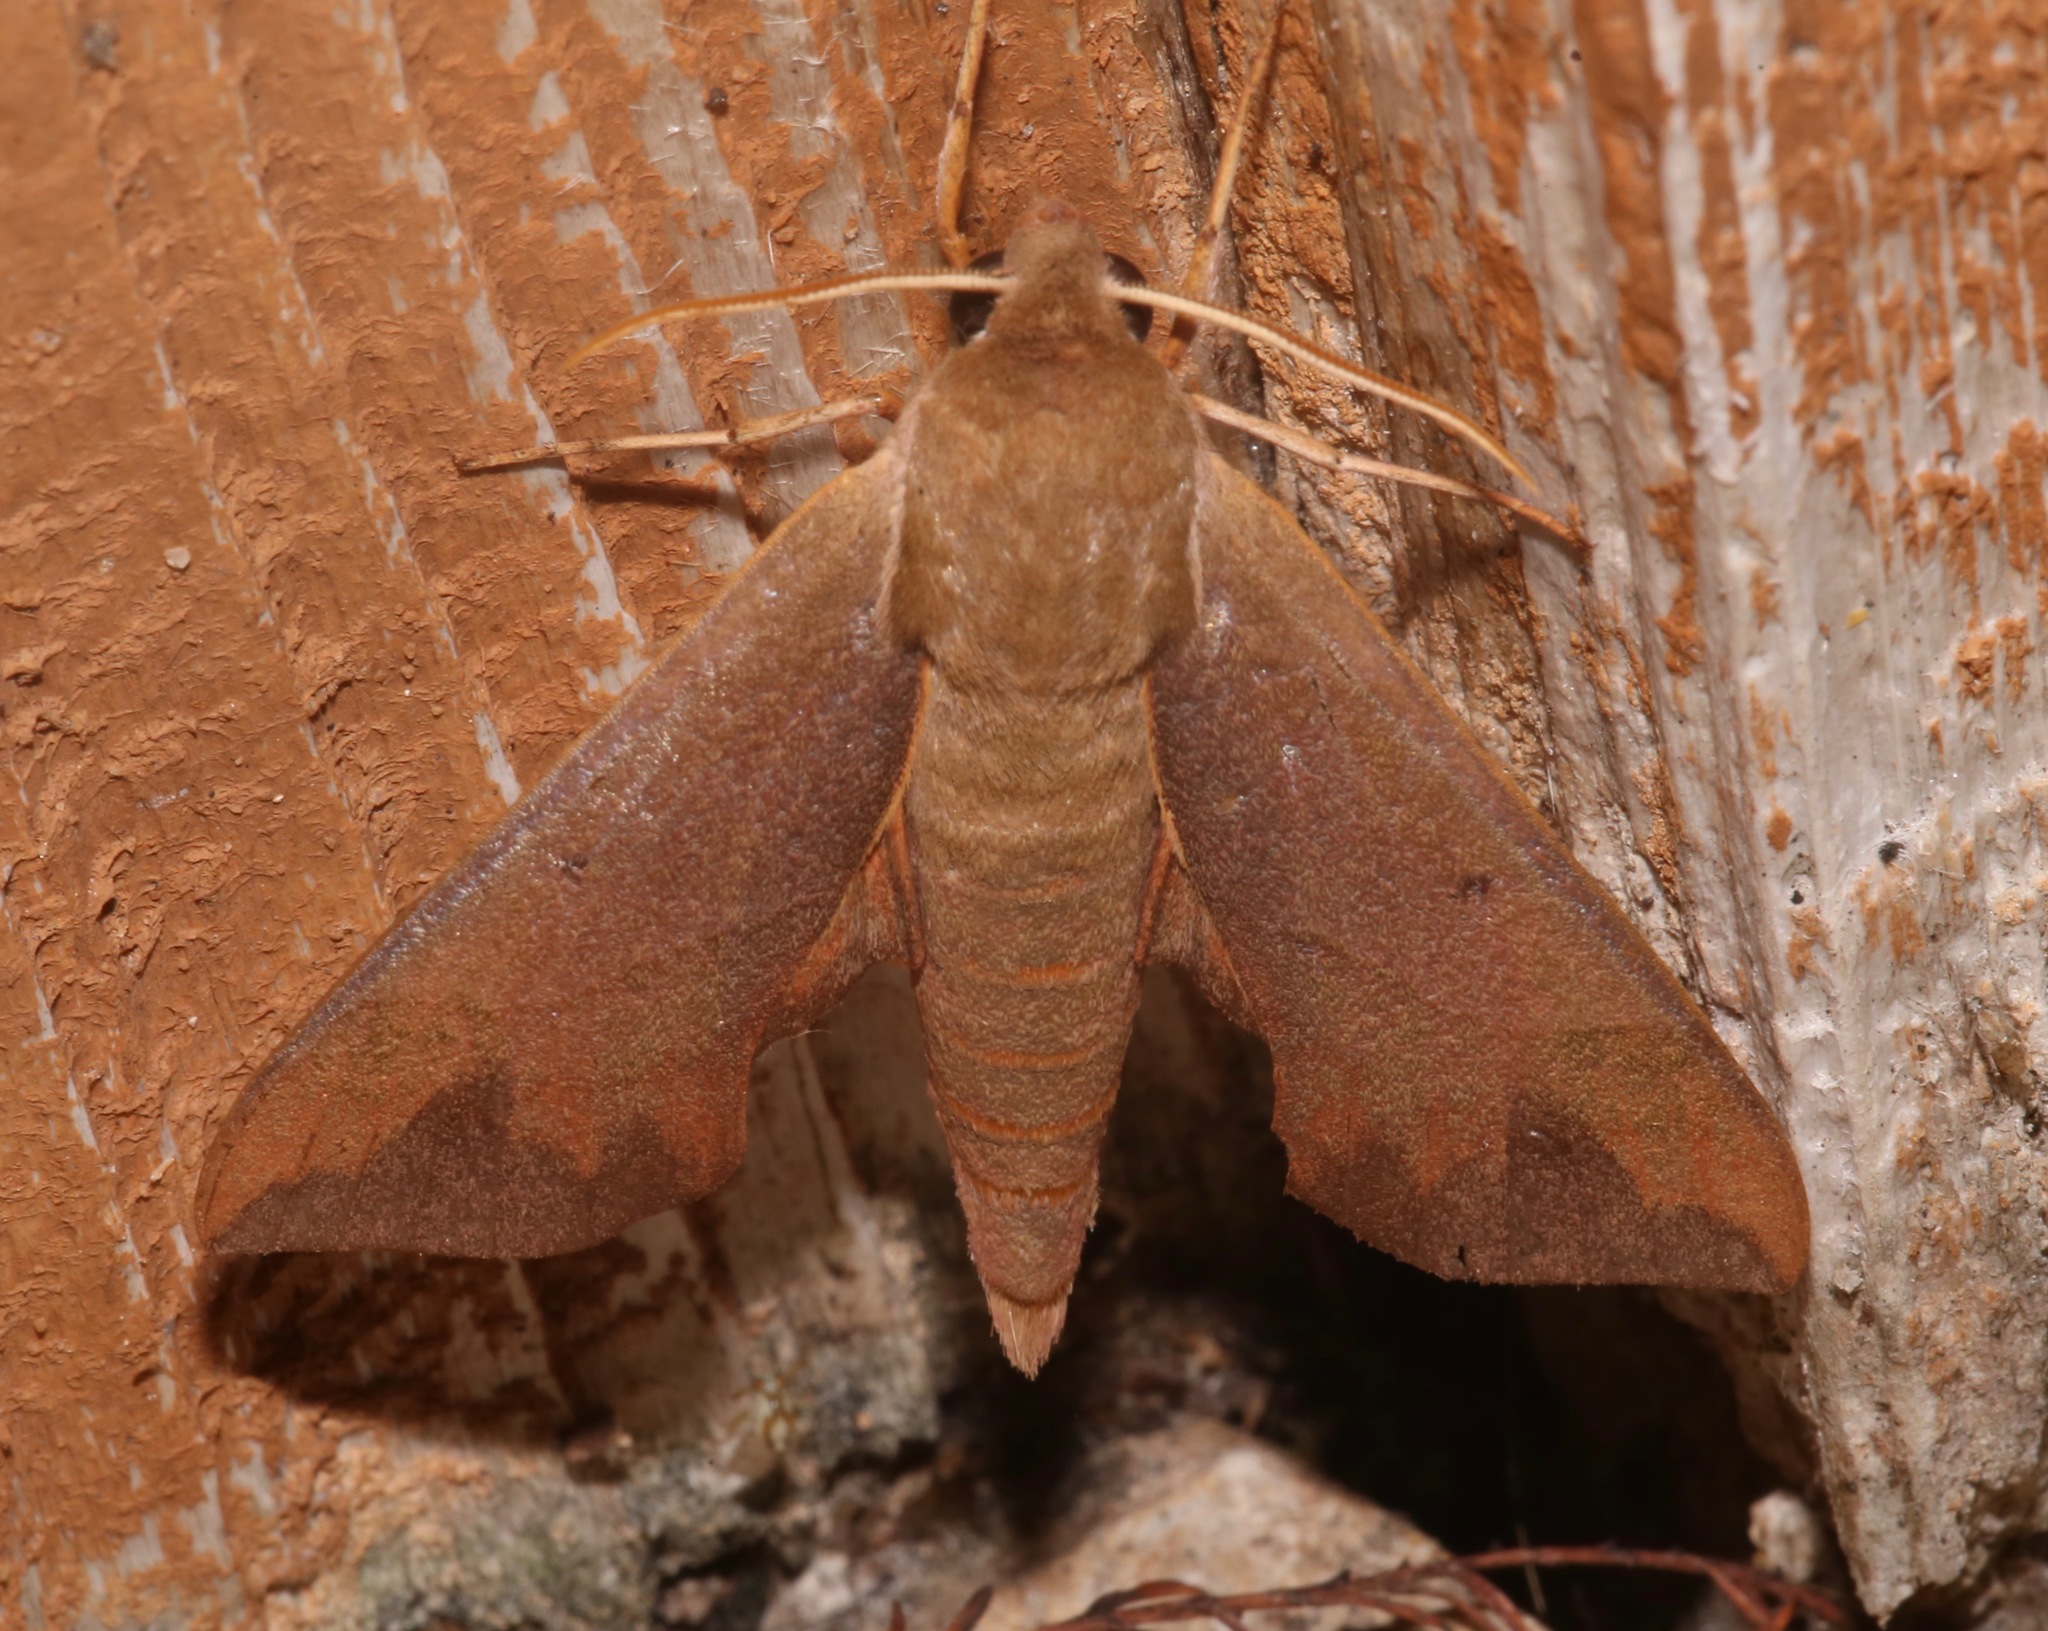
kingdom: Animalia
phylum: Arthropoda
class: Insecta
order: Lepidoptera
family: Sphingidae
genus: Darapsa
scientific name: Darapsa myron
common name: Hog sphinx
